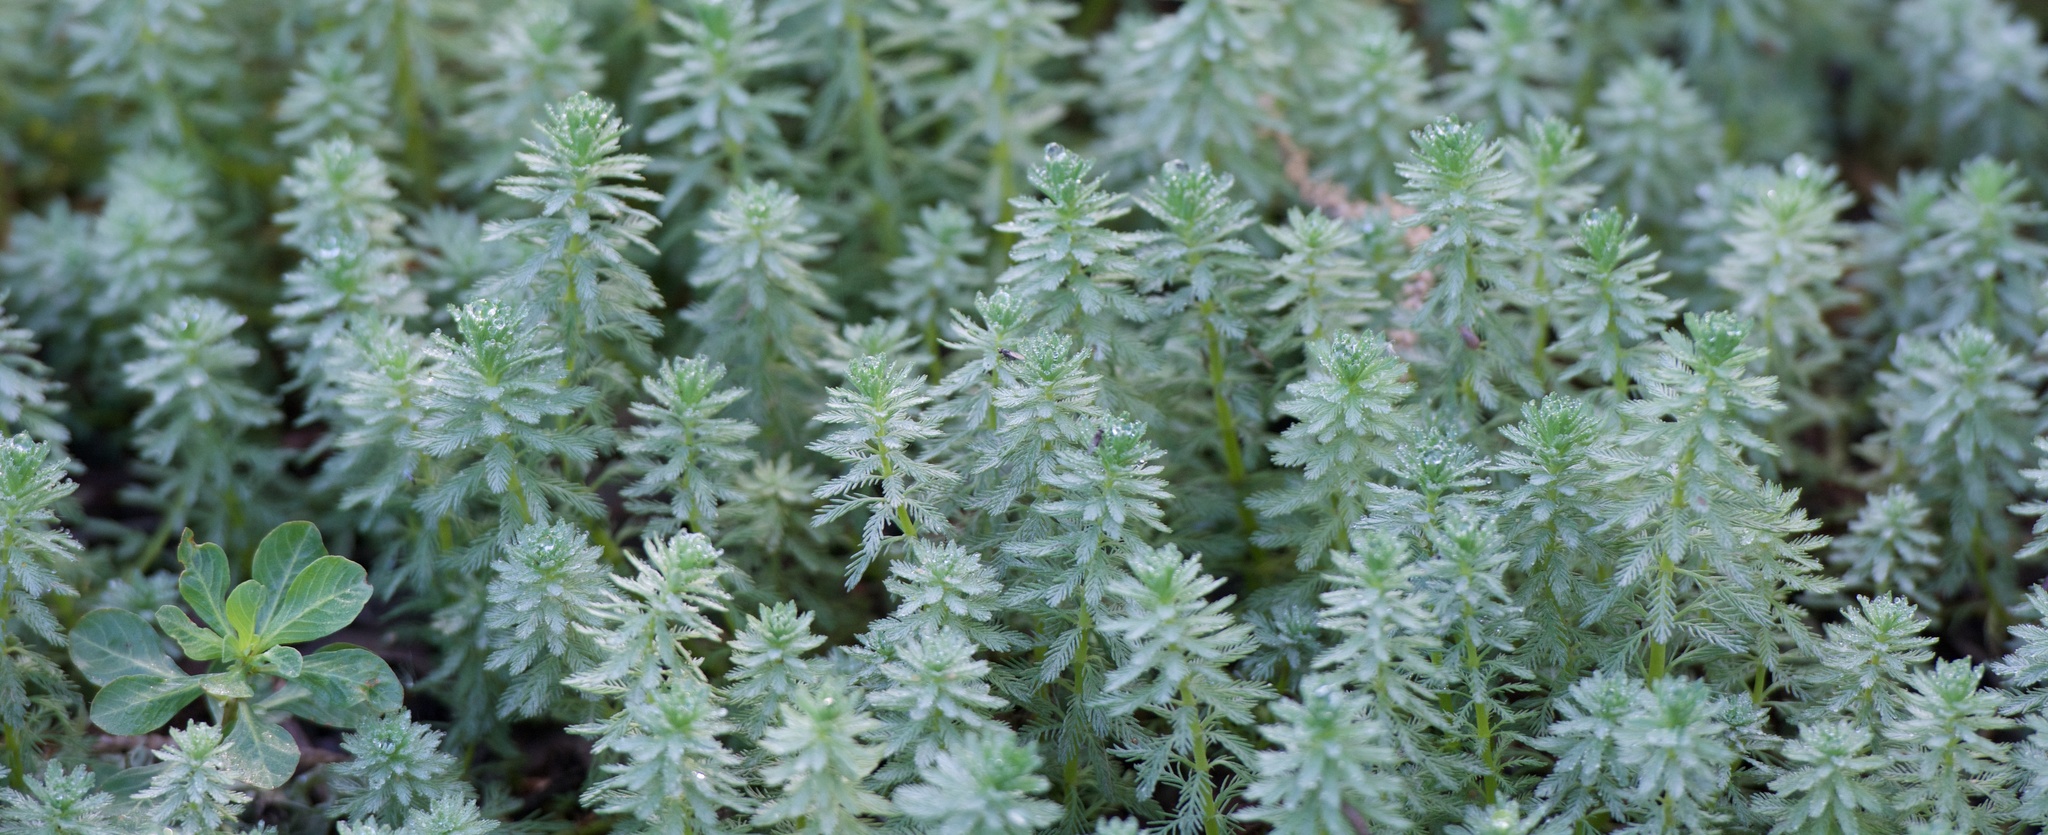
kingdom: Plantae
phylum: Tracheophyta
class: Magnoliopsida
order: Saxifragales
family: Haloragaceae
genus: Myriophyllum
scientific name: Myriophyllum aquaticum
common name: Parrot's feather
